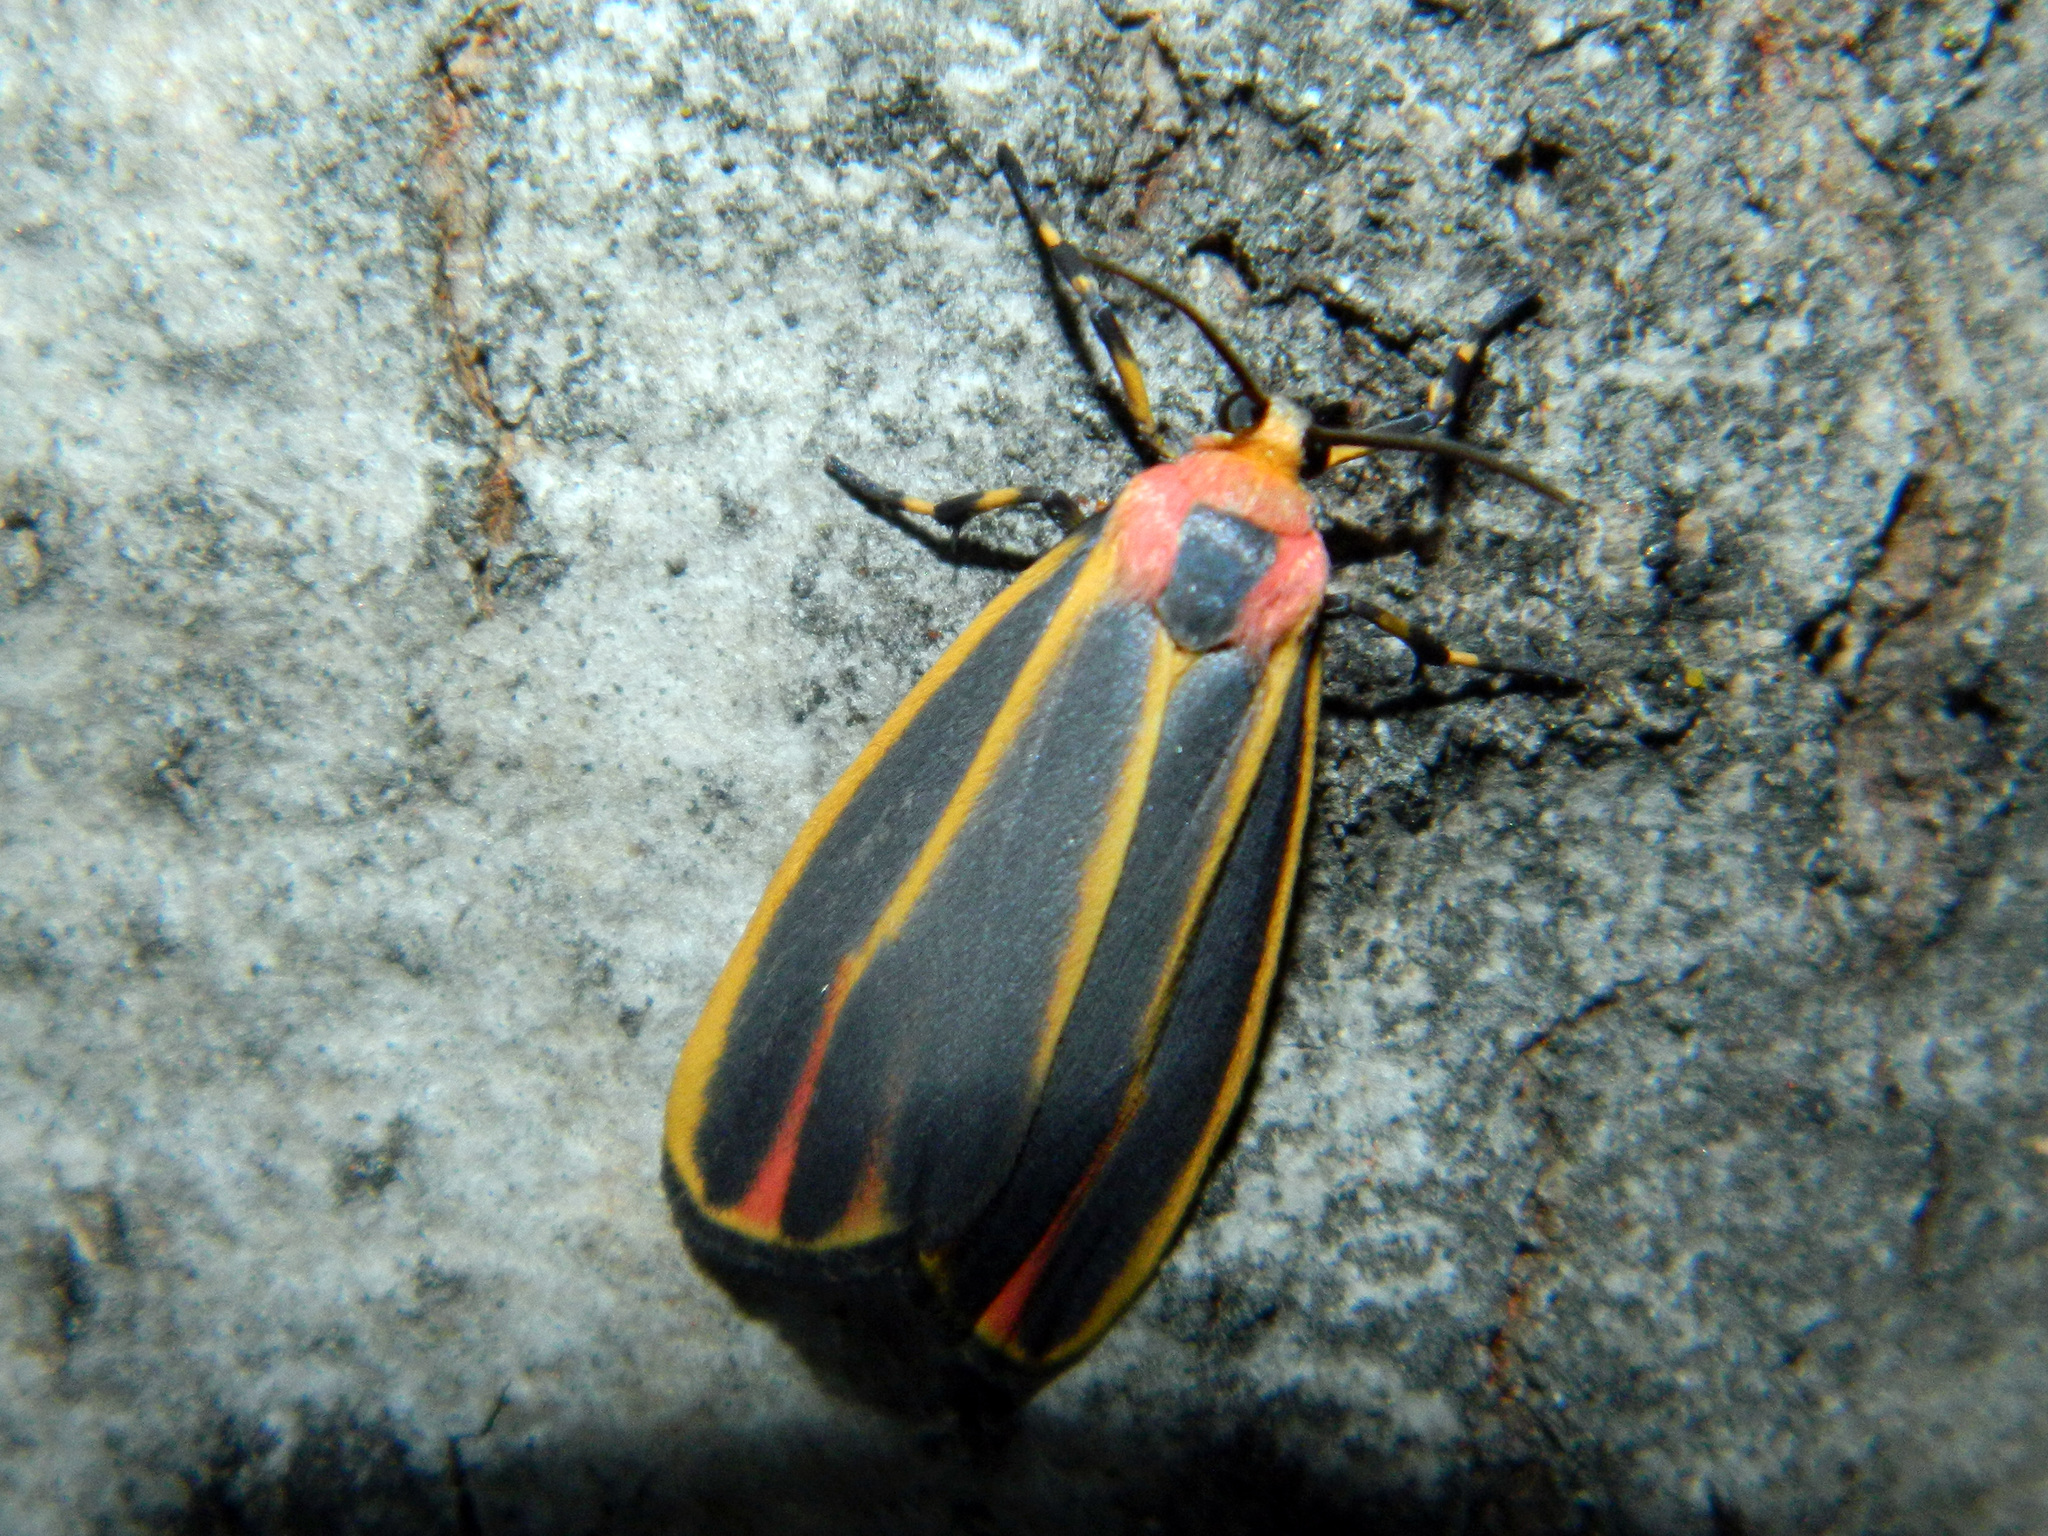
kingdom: Animalia
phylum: Arthropoda
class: Insecta
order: Lepidoptera
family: Erebidae
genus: Hypoprepia
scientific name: Hypoprepia fucosa
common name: Painted lichen moth
